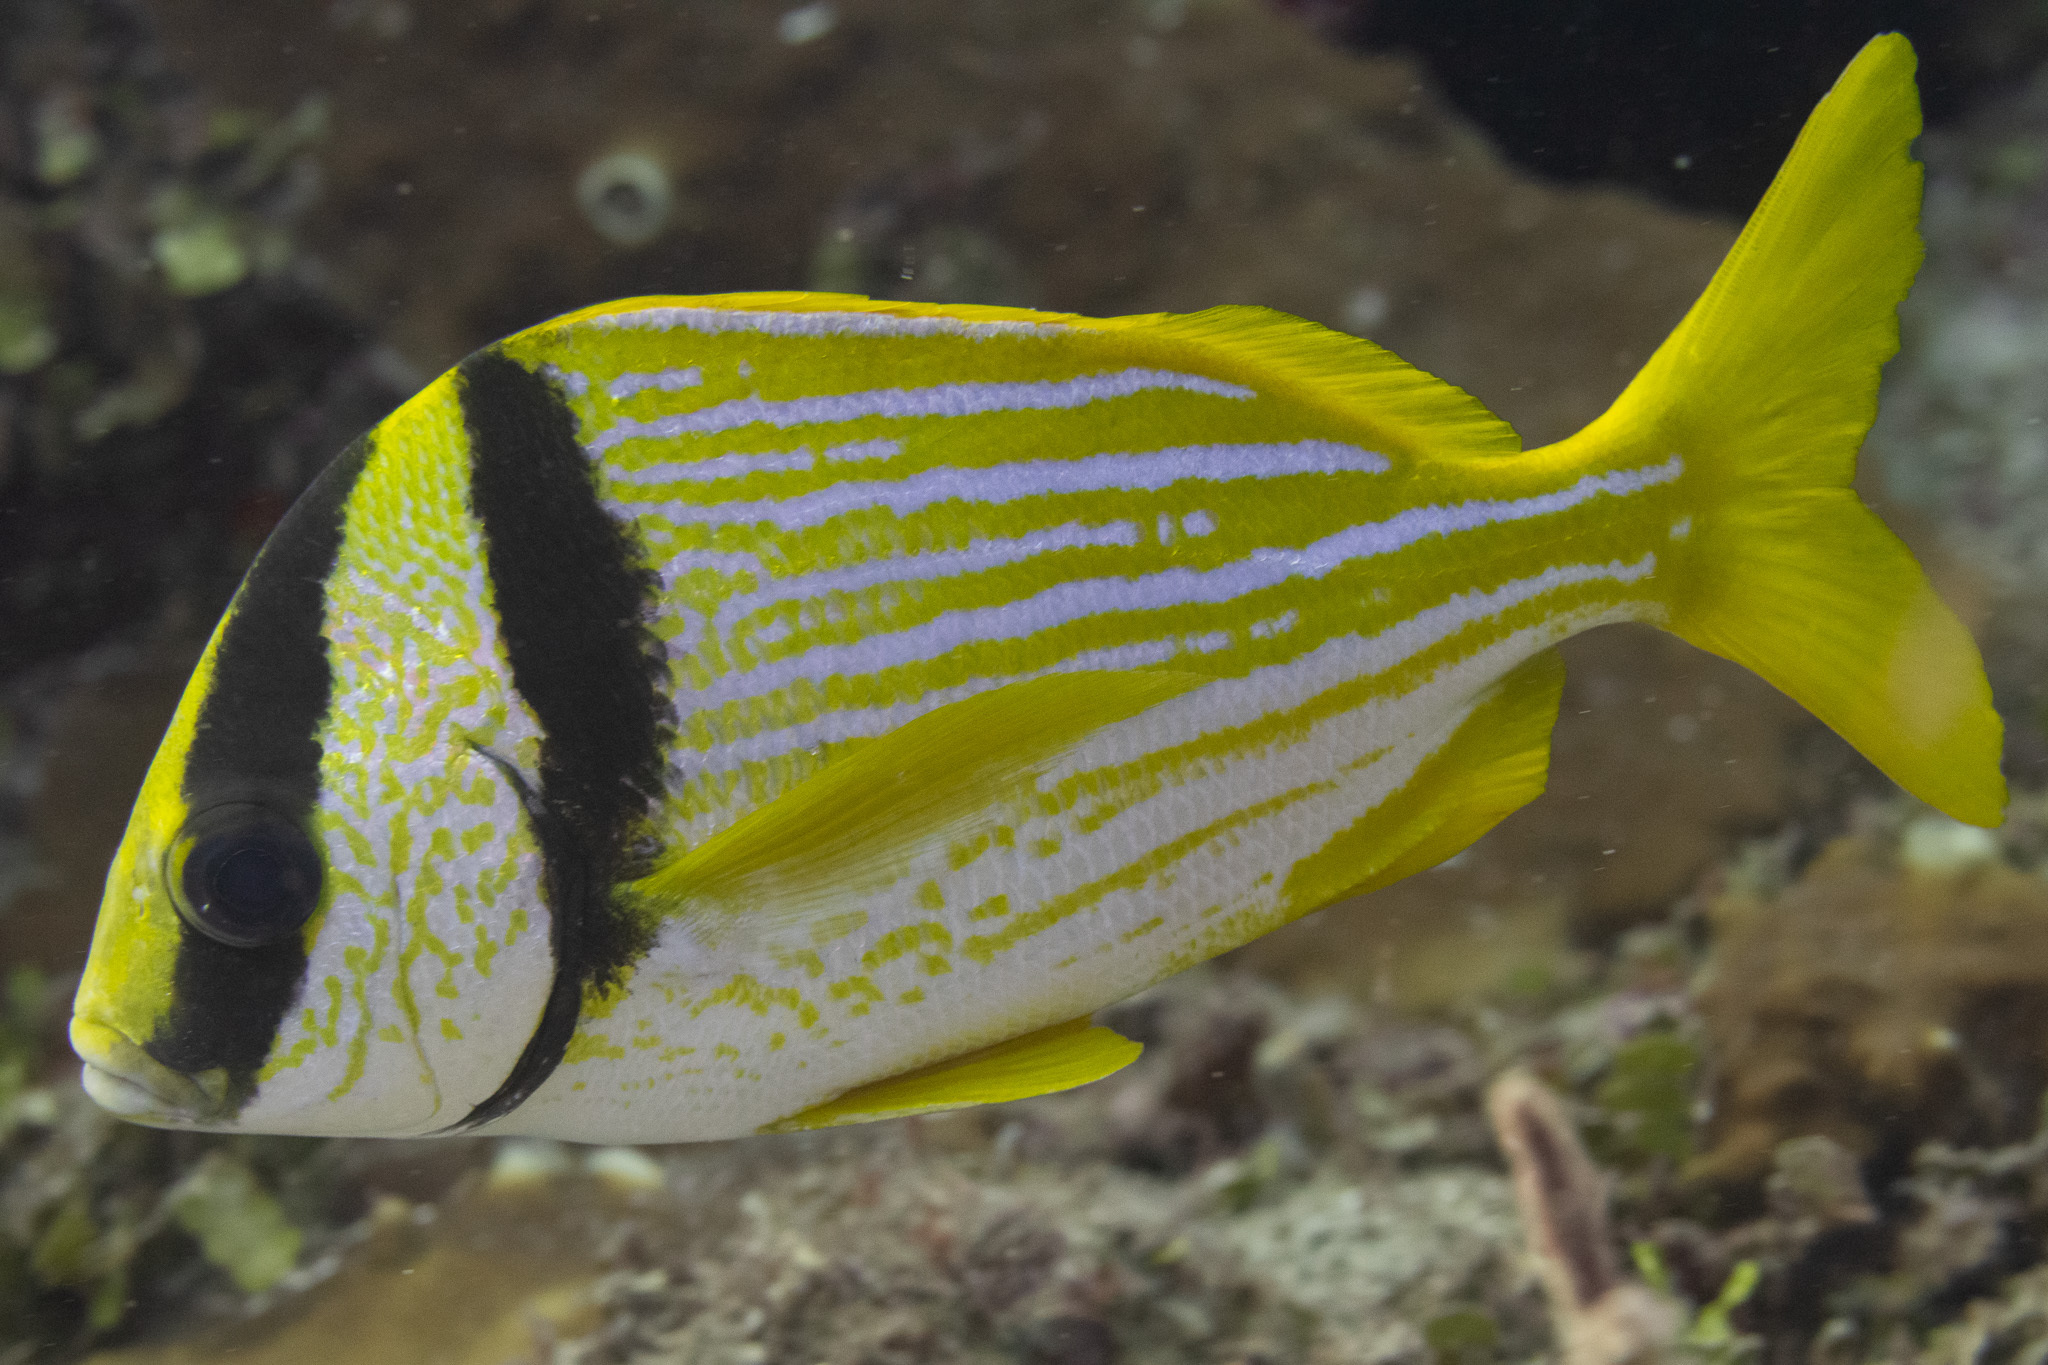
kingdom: Animalia
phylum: Chordata
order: Perciformes
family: Haemulidae
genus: Anisotremus
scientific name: Anisotremus virginicus
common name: Porkfish
